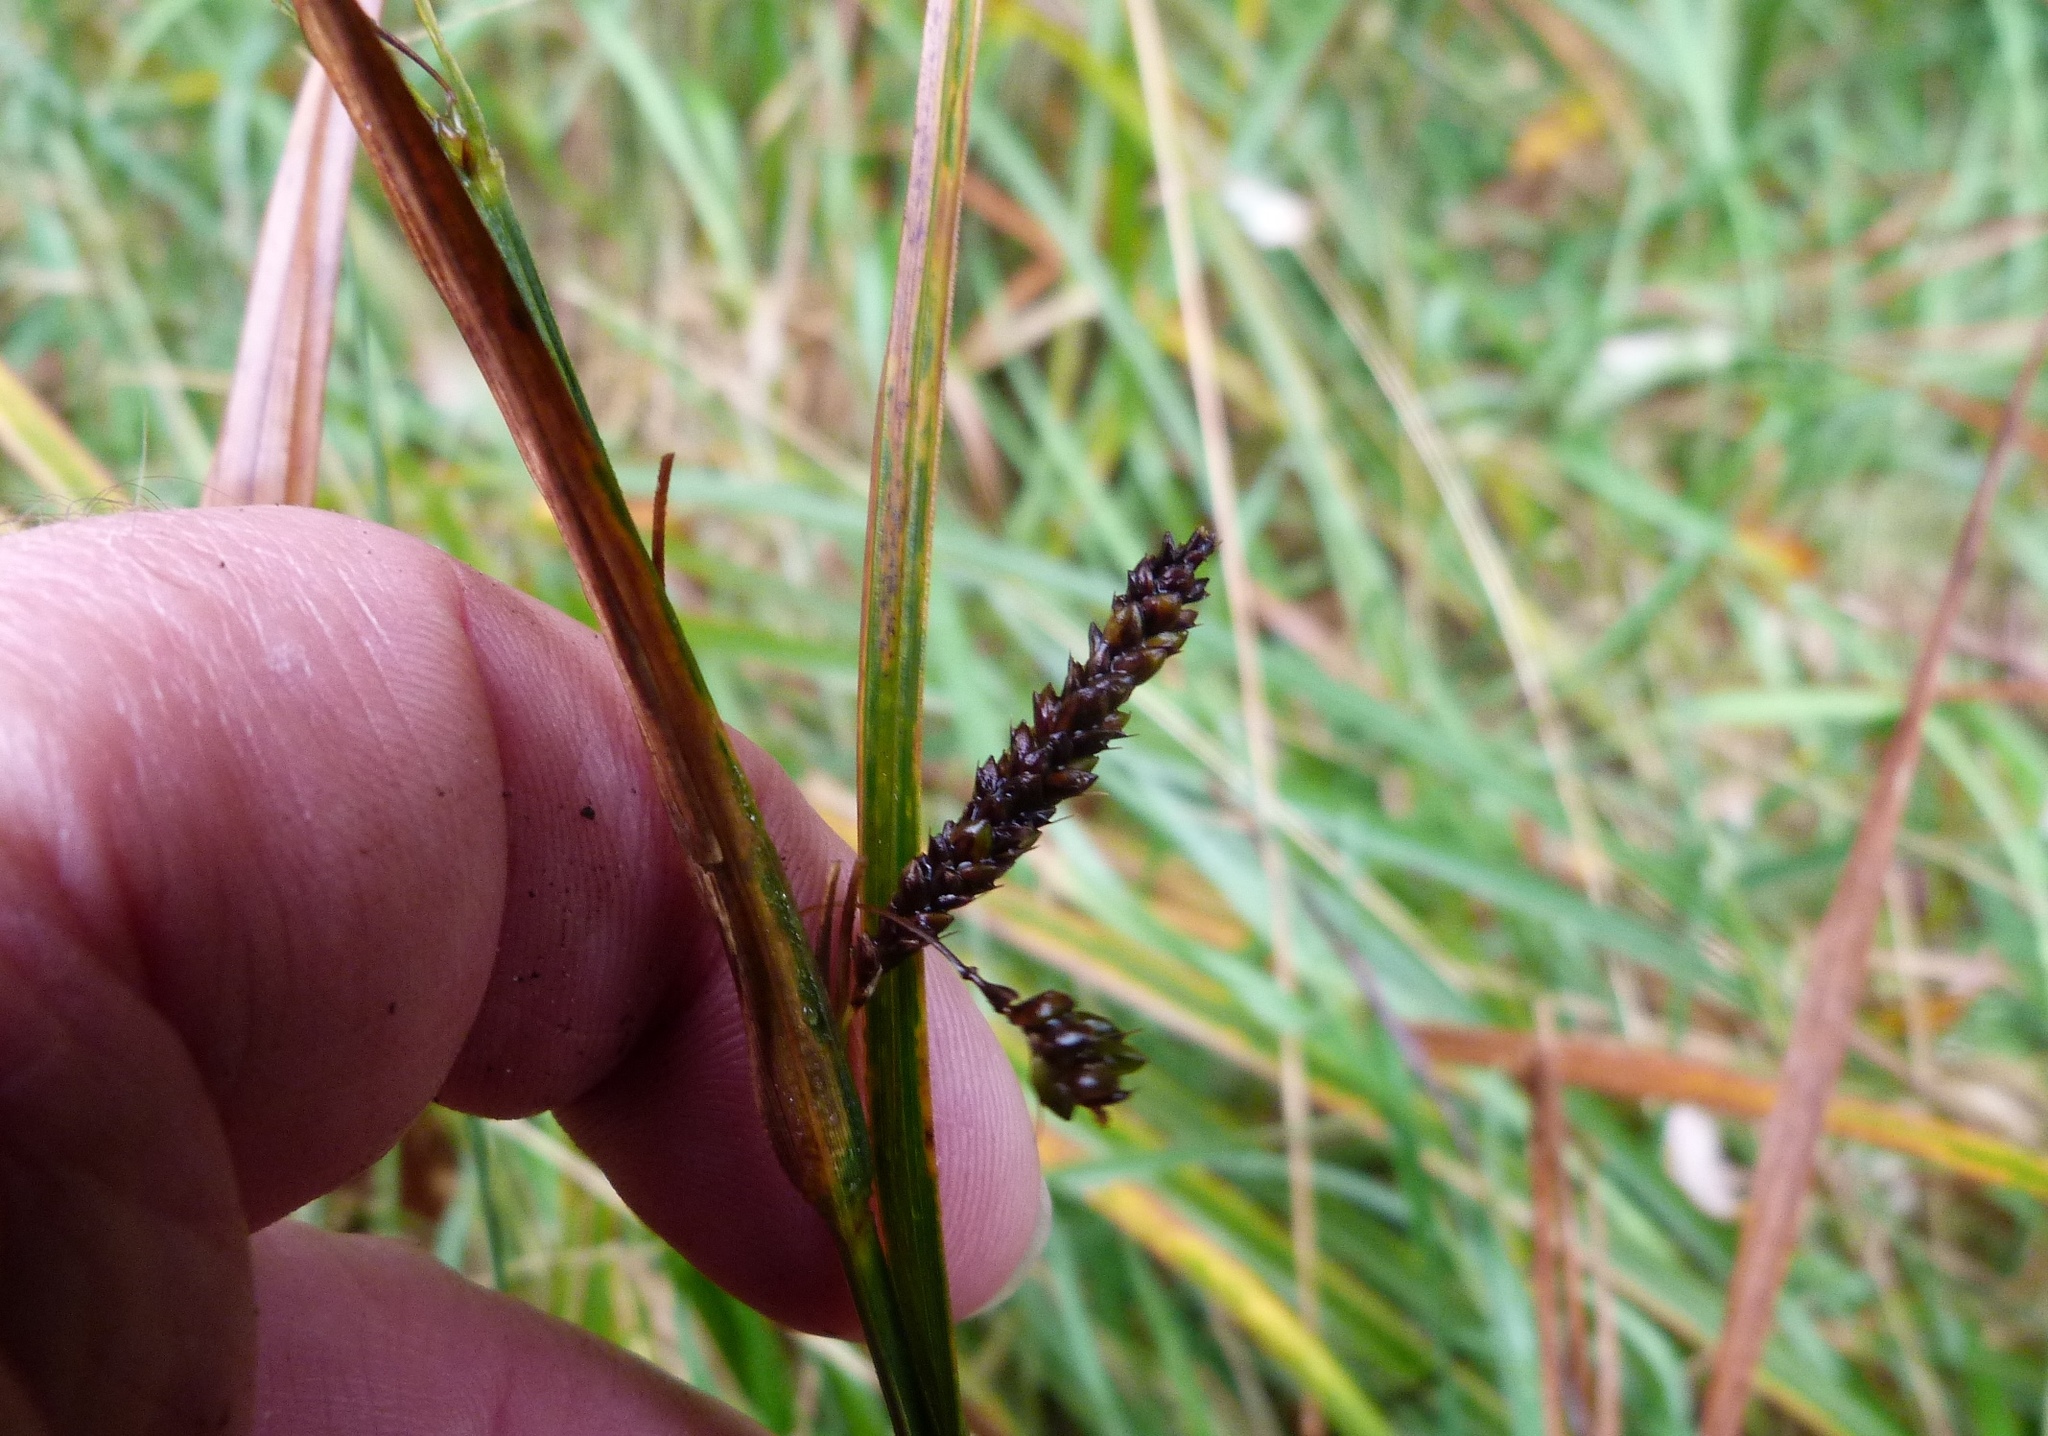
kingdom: Plantae
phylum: Tracheophyta
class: Liliopsida
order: Poales
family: Cyperaceae
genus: Carex
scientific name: Carex coriacea
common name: Rautahi
